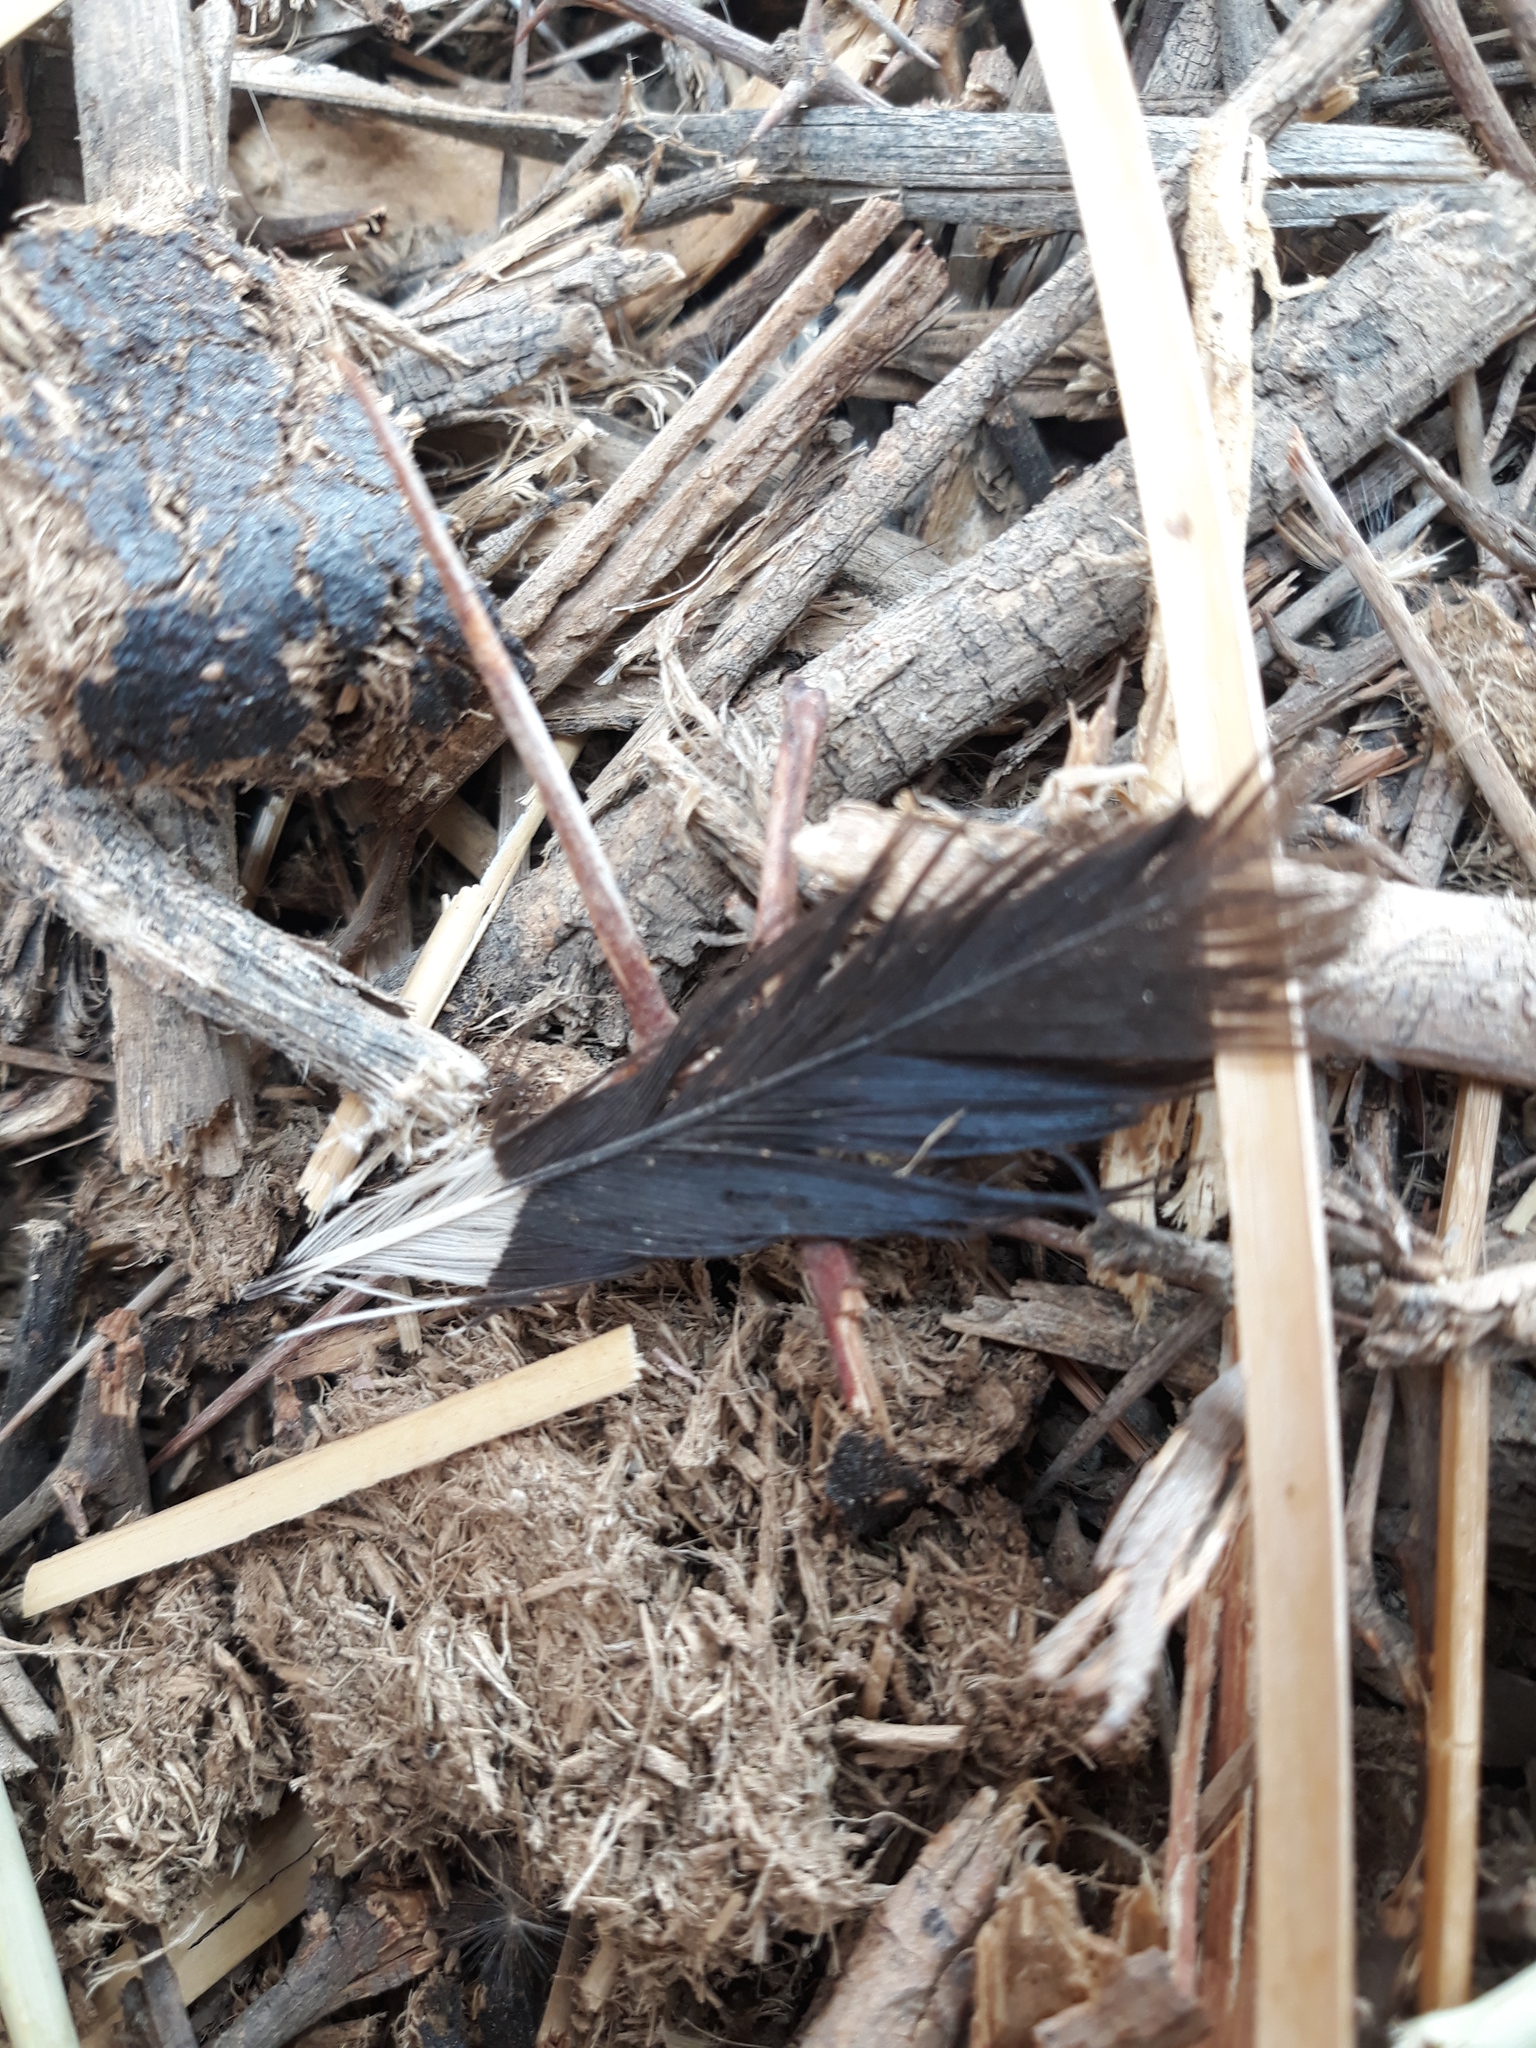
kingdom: Animalia
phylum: Chordata
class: Aves
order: Bucerotiformes
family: Upupidae
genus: Upupa
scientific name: Upupa epops
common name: Eurasian hoopoe
